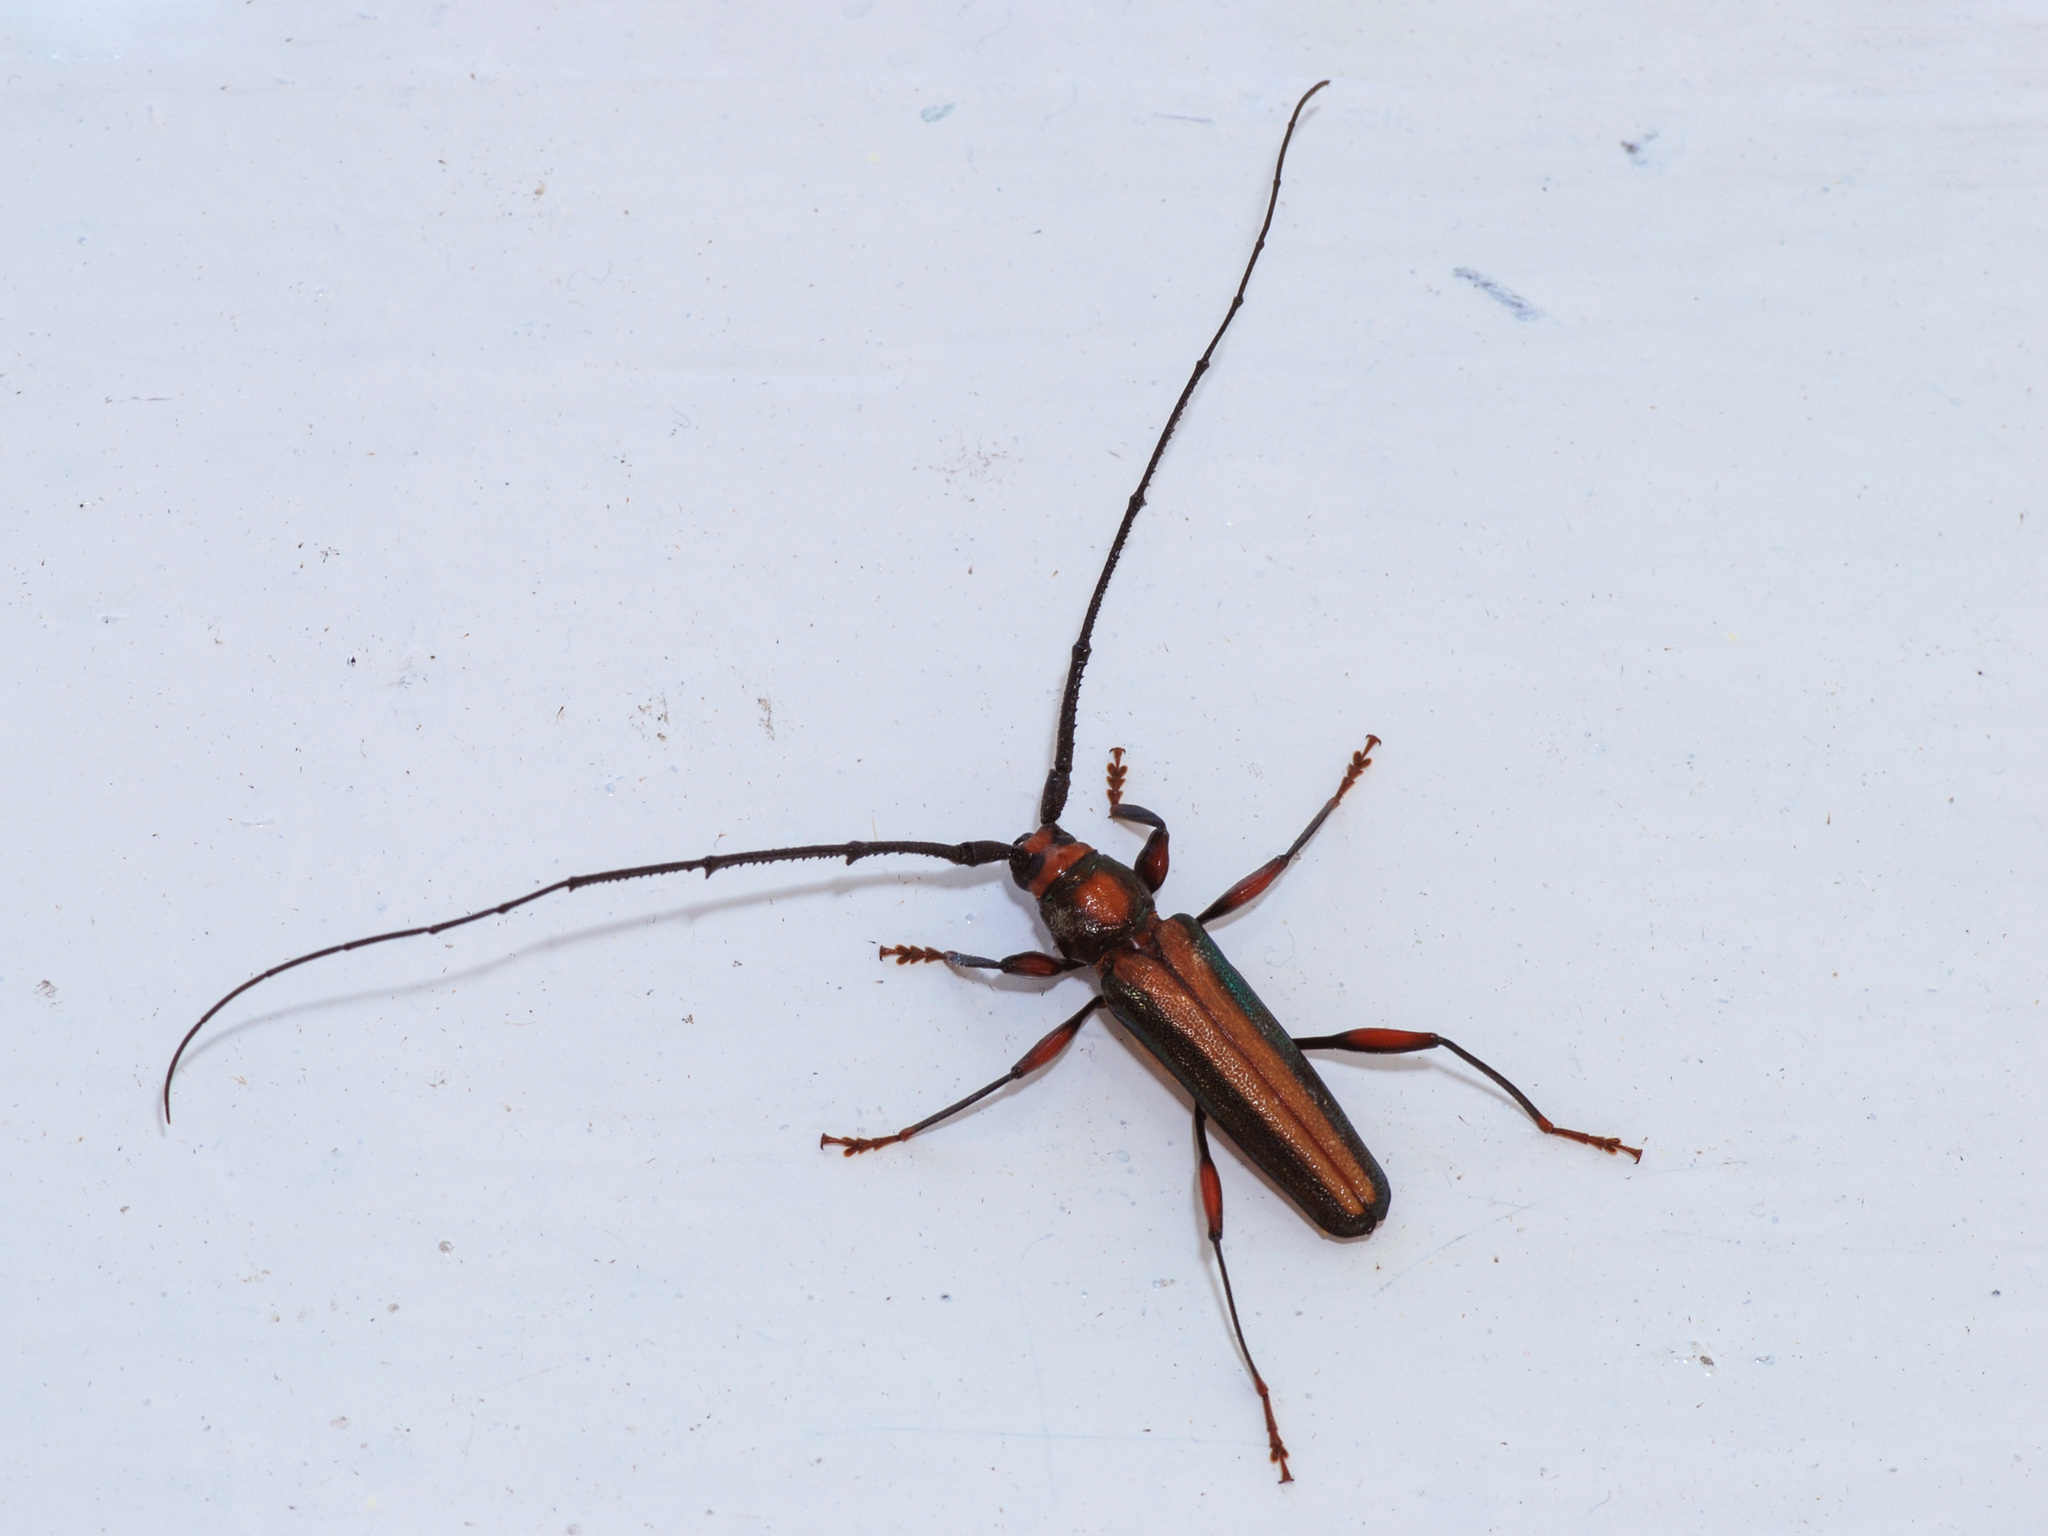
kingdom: Animalia
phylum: Arthropoda
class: Insecta
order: Coleoptera
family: Cerambycidae
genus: Xystrocera
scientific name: Xystrocera festiva
